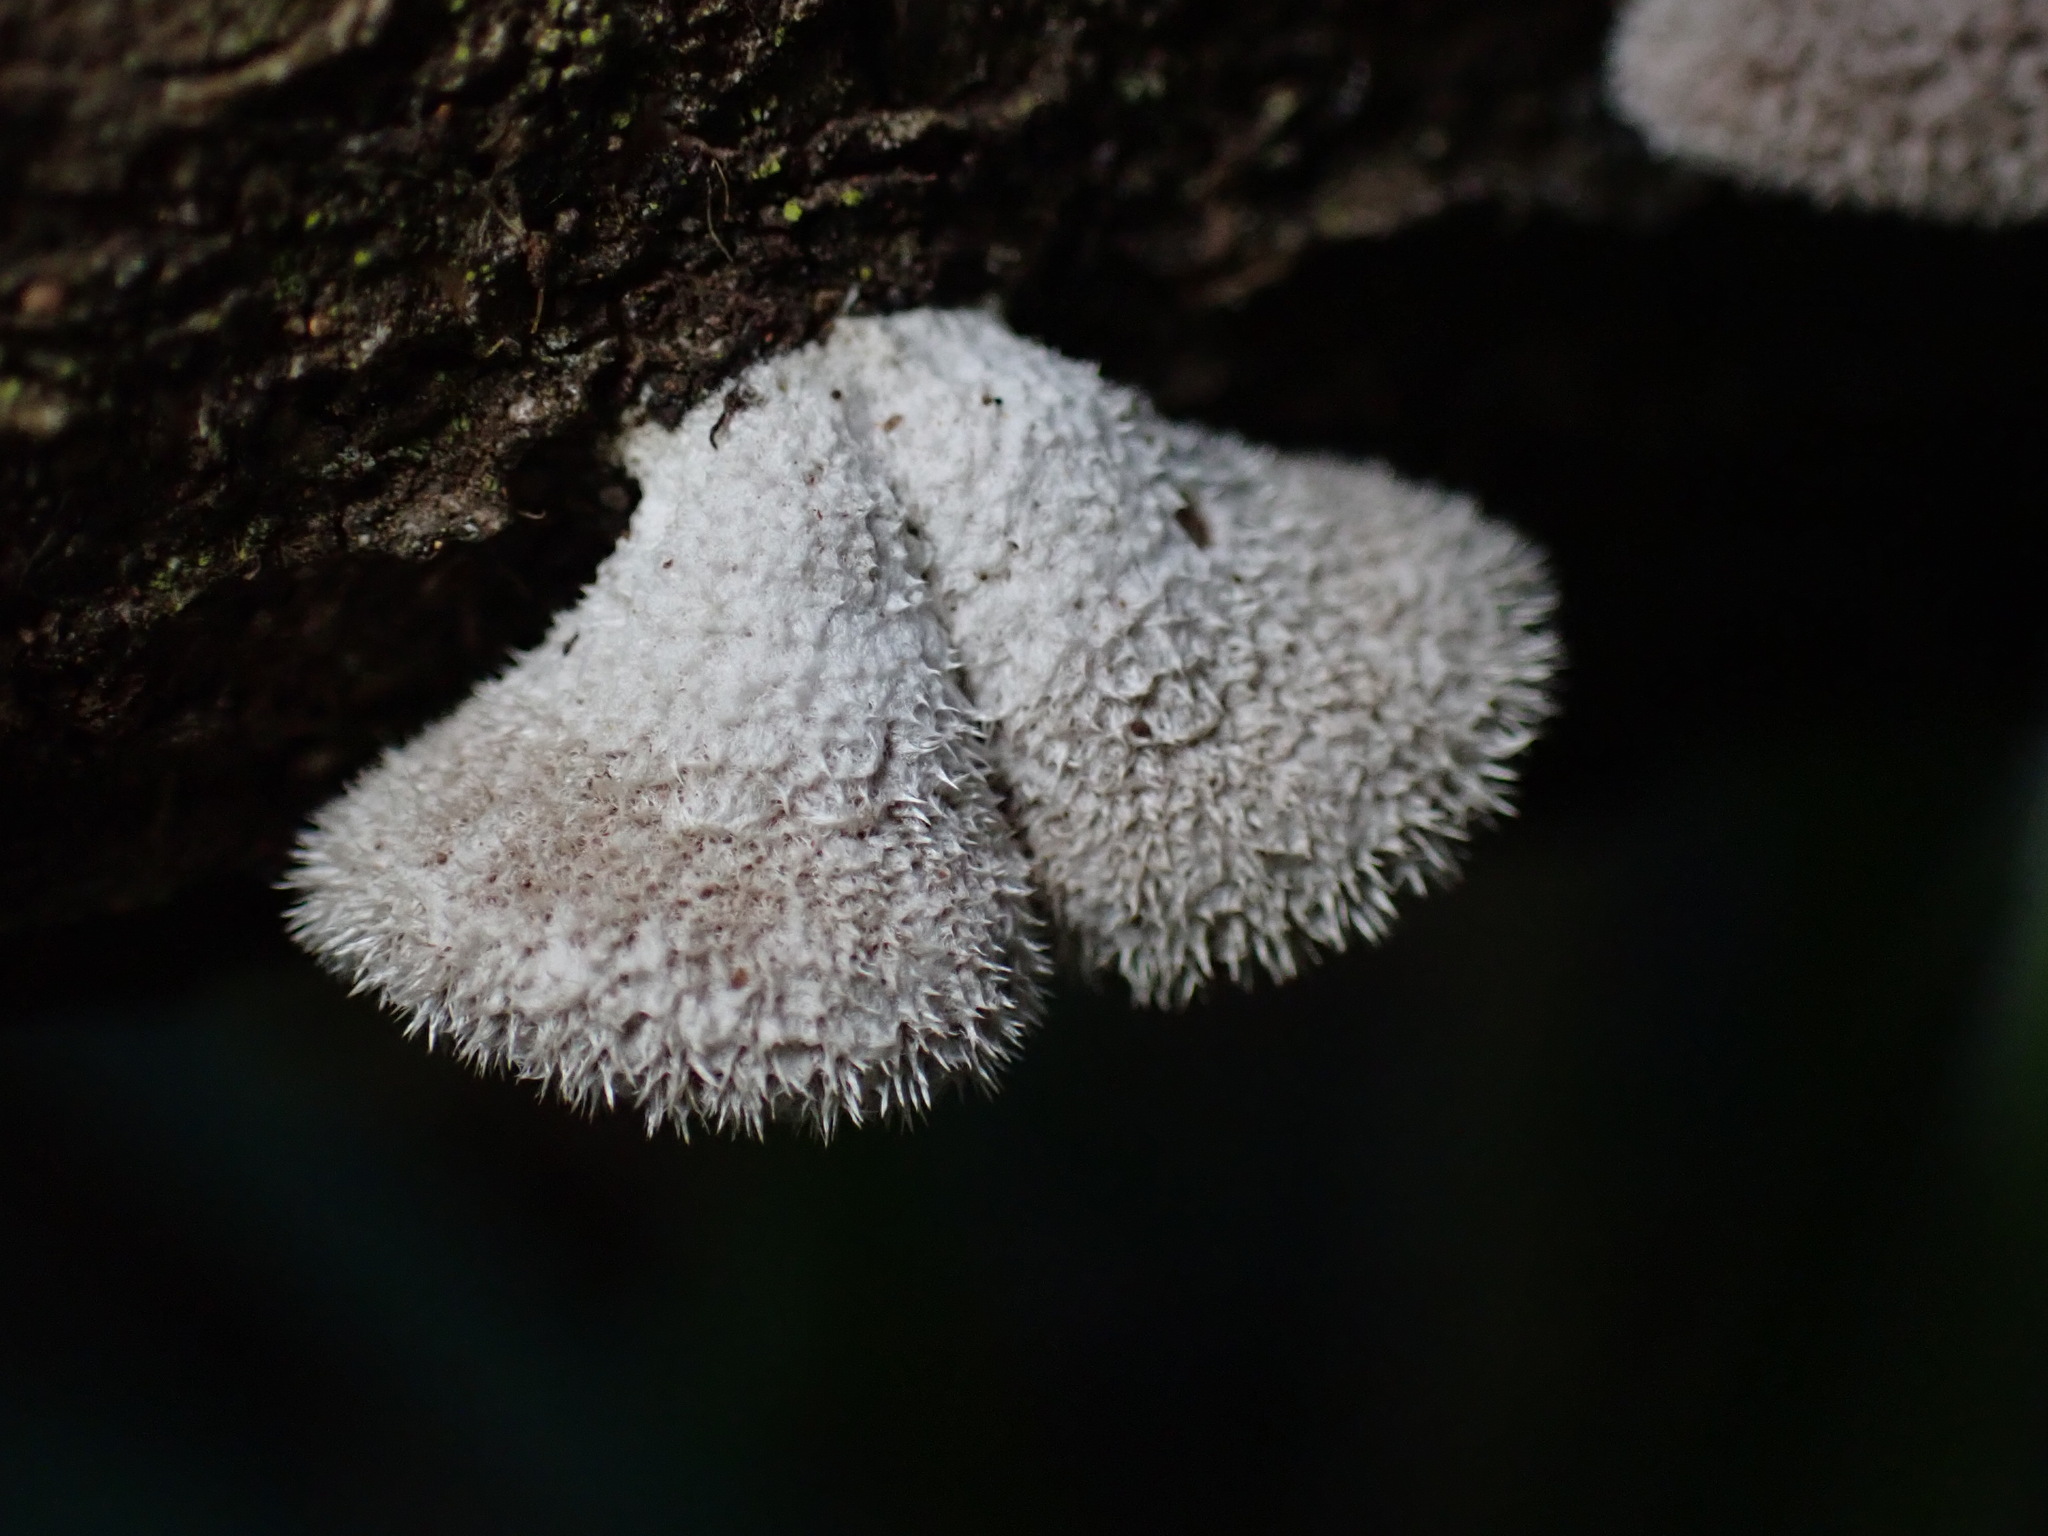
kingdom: Fungi
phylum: Basidiomycota
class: Agaricomycetes
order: Agaricales
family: Schizophyllaceae
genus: Schizophyllum
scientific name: Schizophyllum commune
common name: Common porecrust
